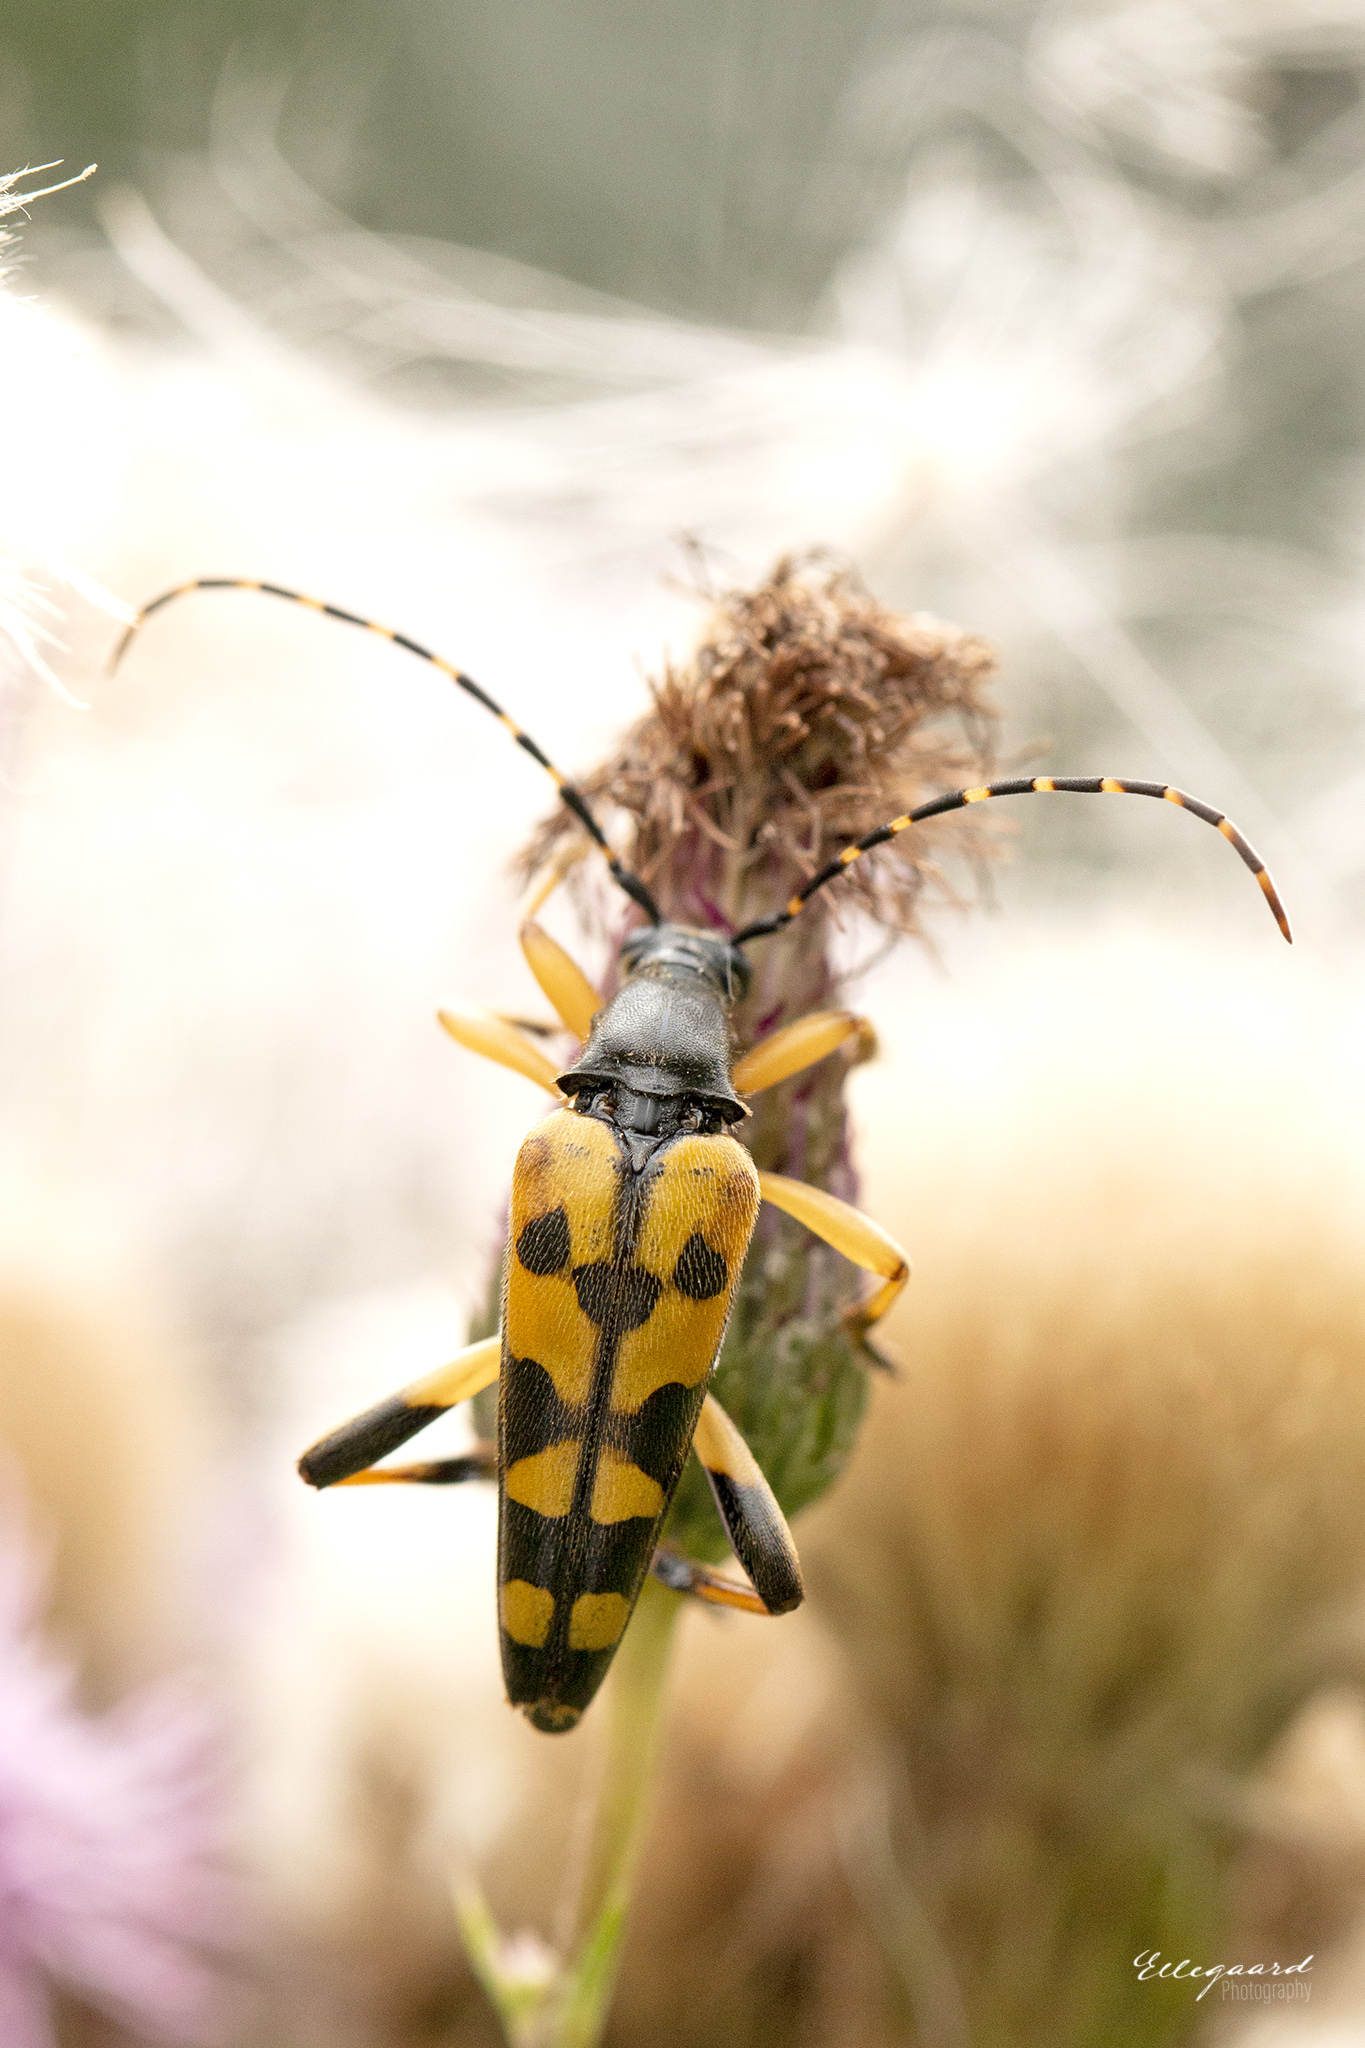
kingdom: Animalia
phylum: Arthropoda
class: Insecta
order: Coleoptera
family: Cerambycidae
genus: Rutpela
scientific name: Rutpela maculata
